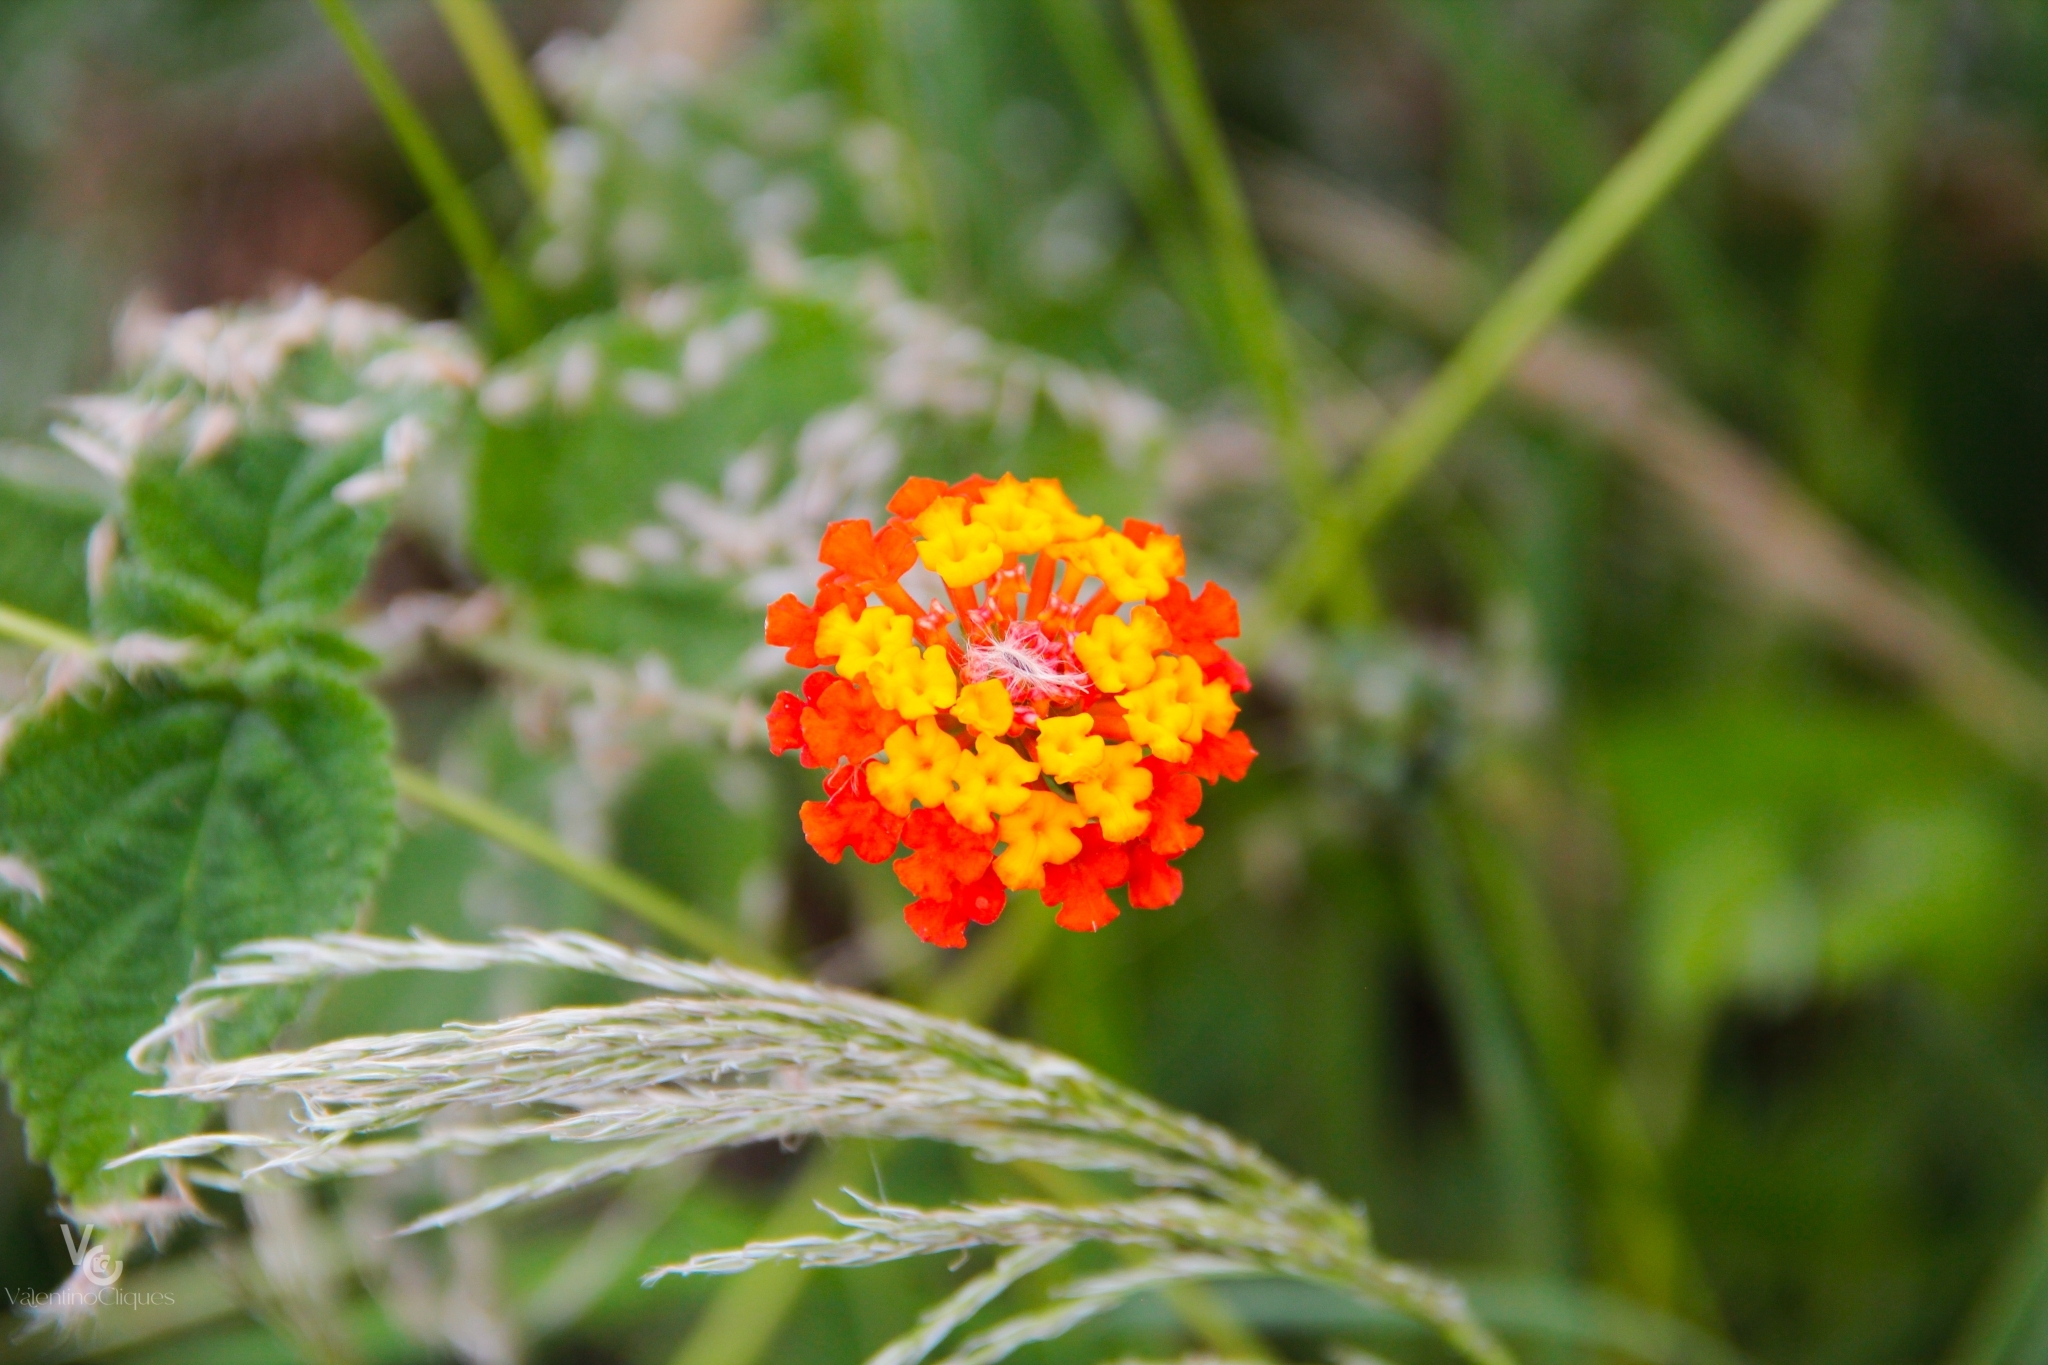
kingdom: Plantae
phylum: Tracheophyta
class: Magnoliopsida
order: Lamiales
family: Verbenaceae
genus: Lantana
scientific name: Lantana horrida
